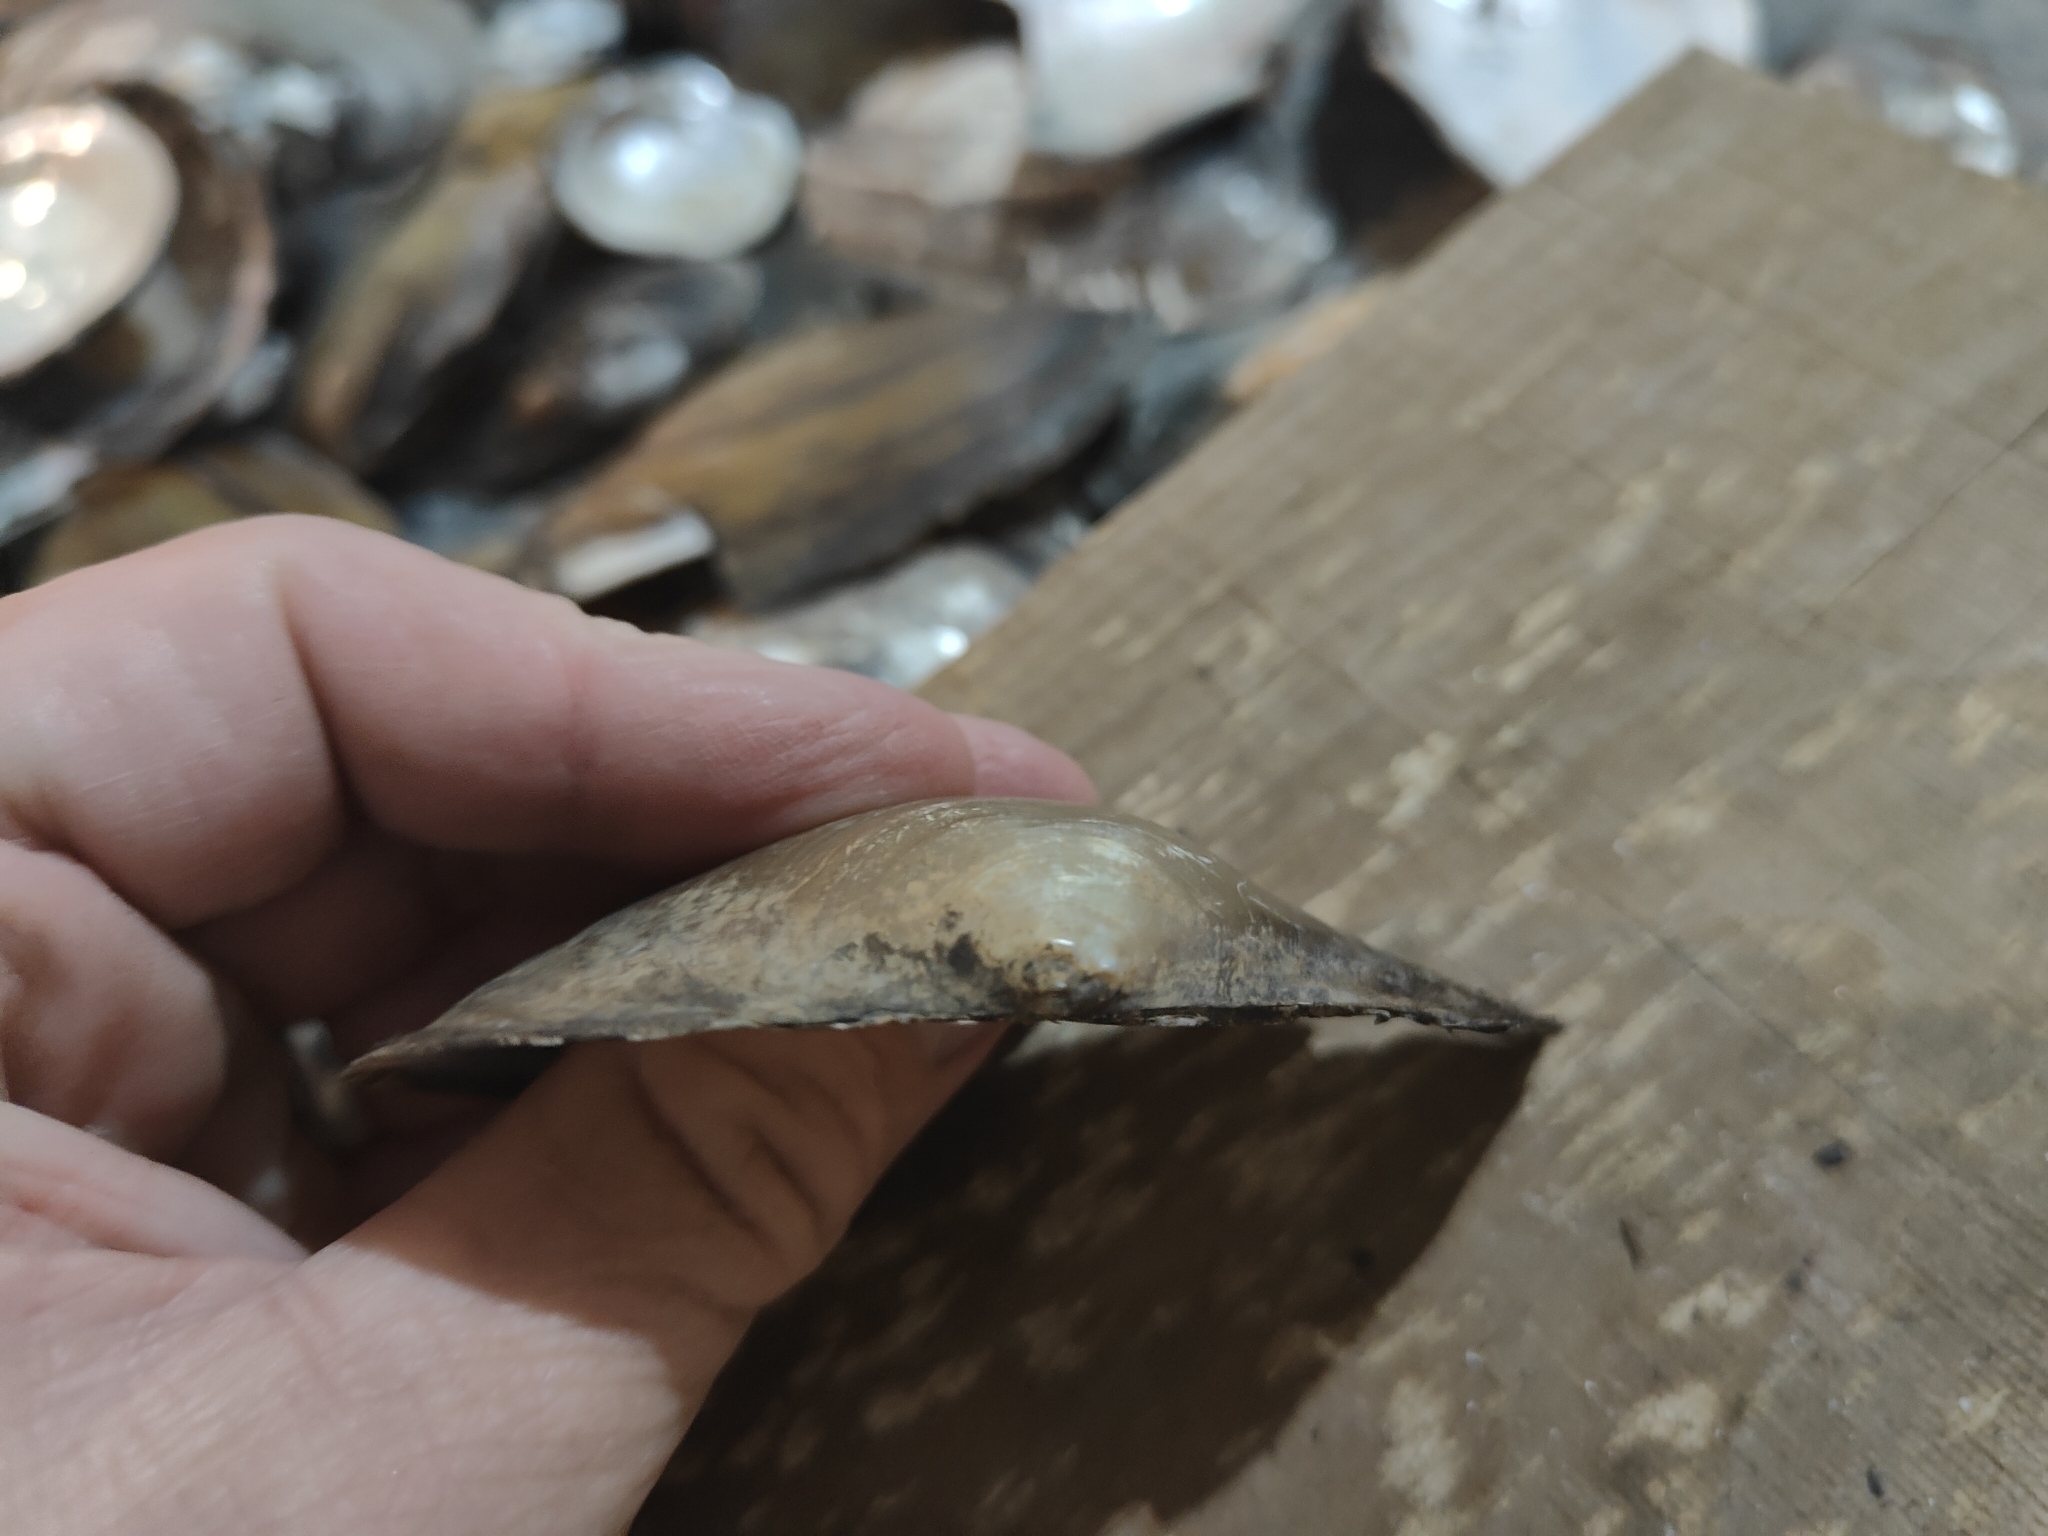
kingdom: Animalia
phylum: Mollusca
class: Bivalvia
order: Unionida
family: Unionidae
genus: Pyganodon
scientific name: Pyganodon grandis
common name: Giant floater
